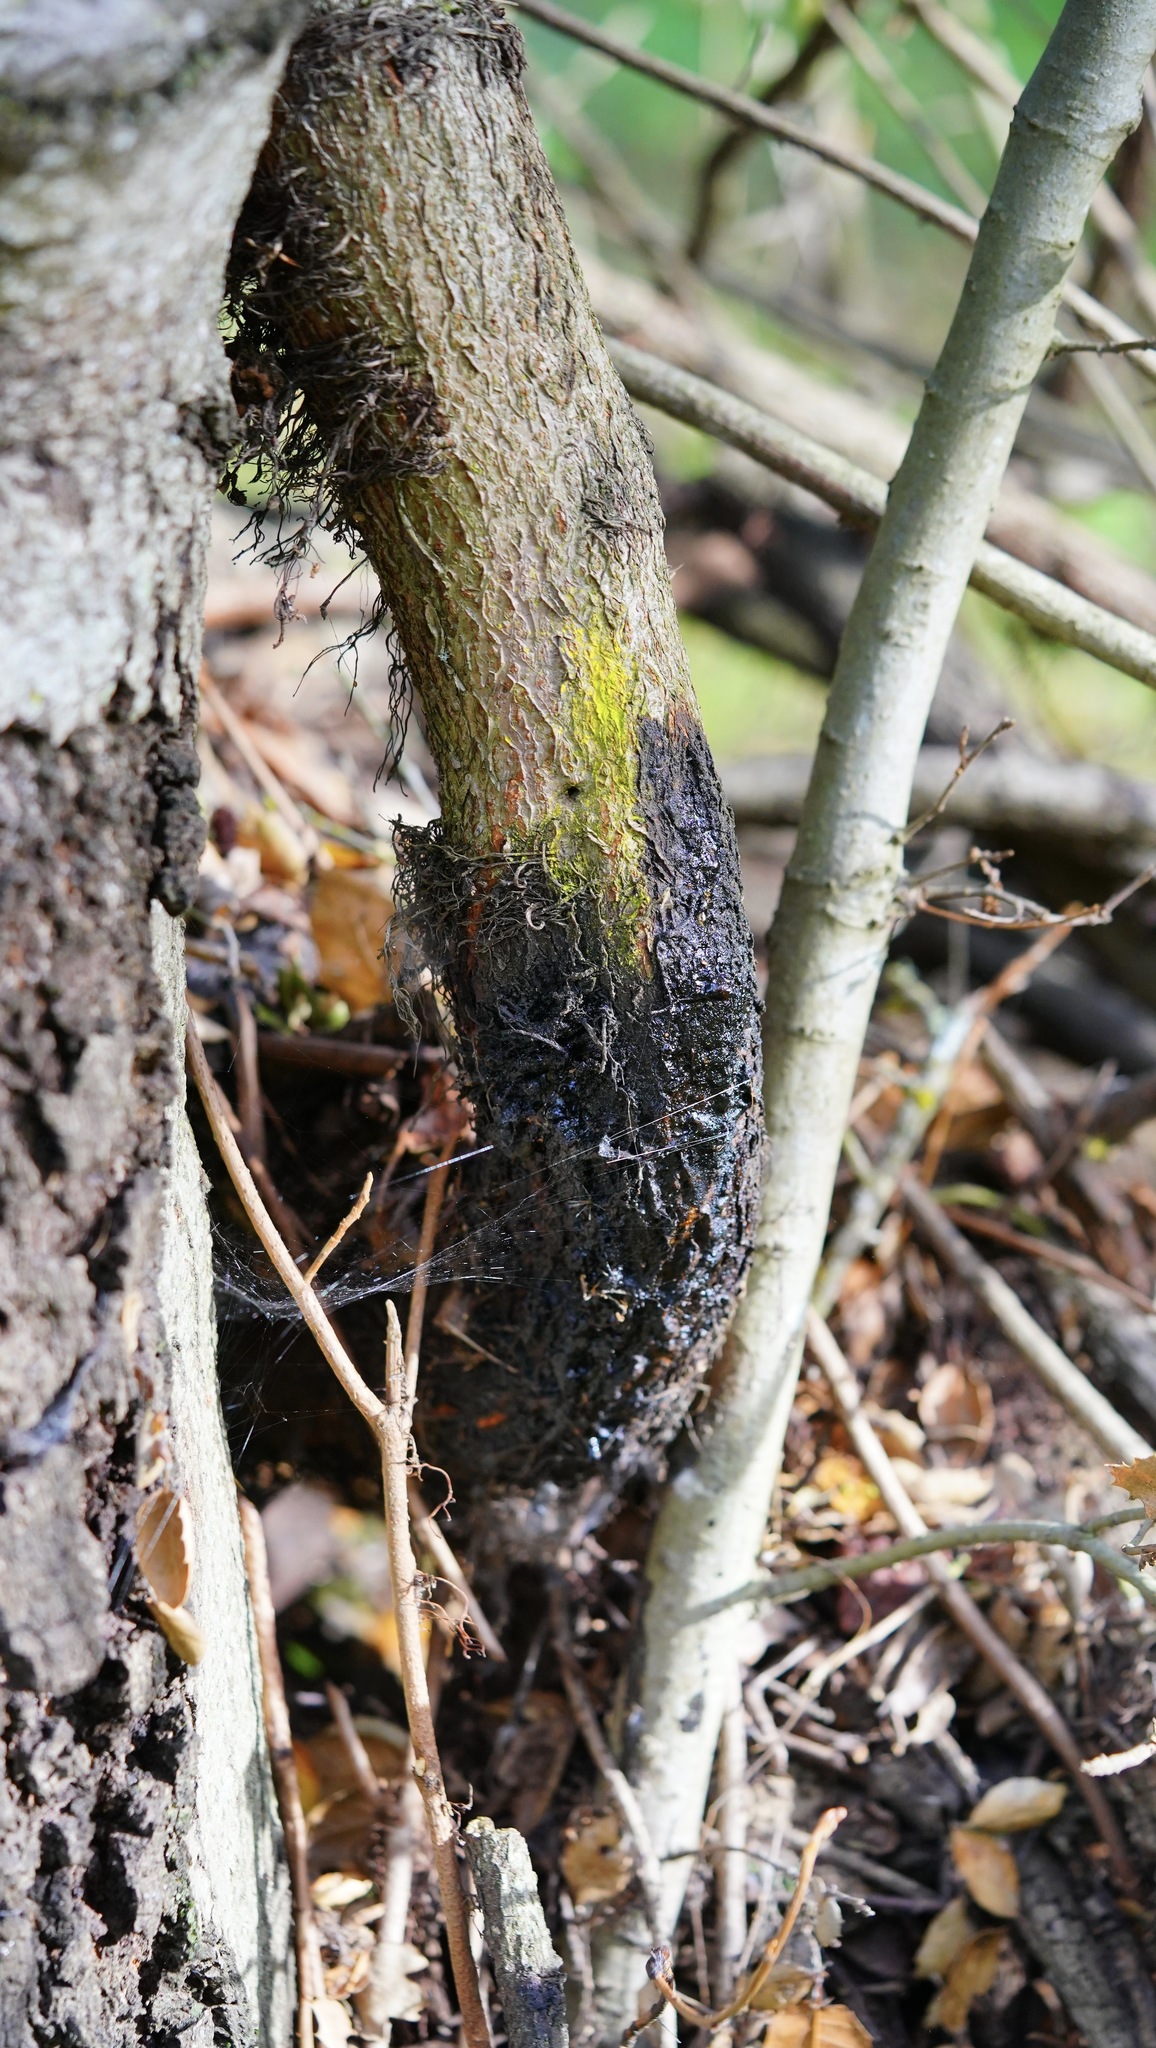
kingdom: Plantae
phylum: Tracheophyta
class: Magnoliopsida
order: Sapindales
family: Anacardiaceae
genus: Toxicodendron
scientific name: Toxicodendron diversilobum
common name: Pacific poison-oak
